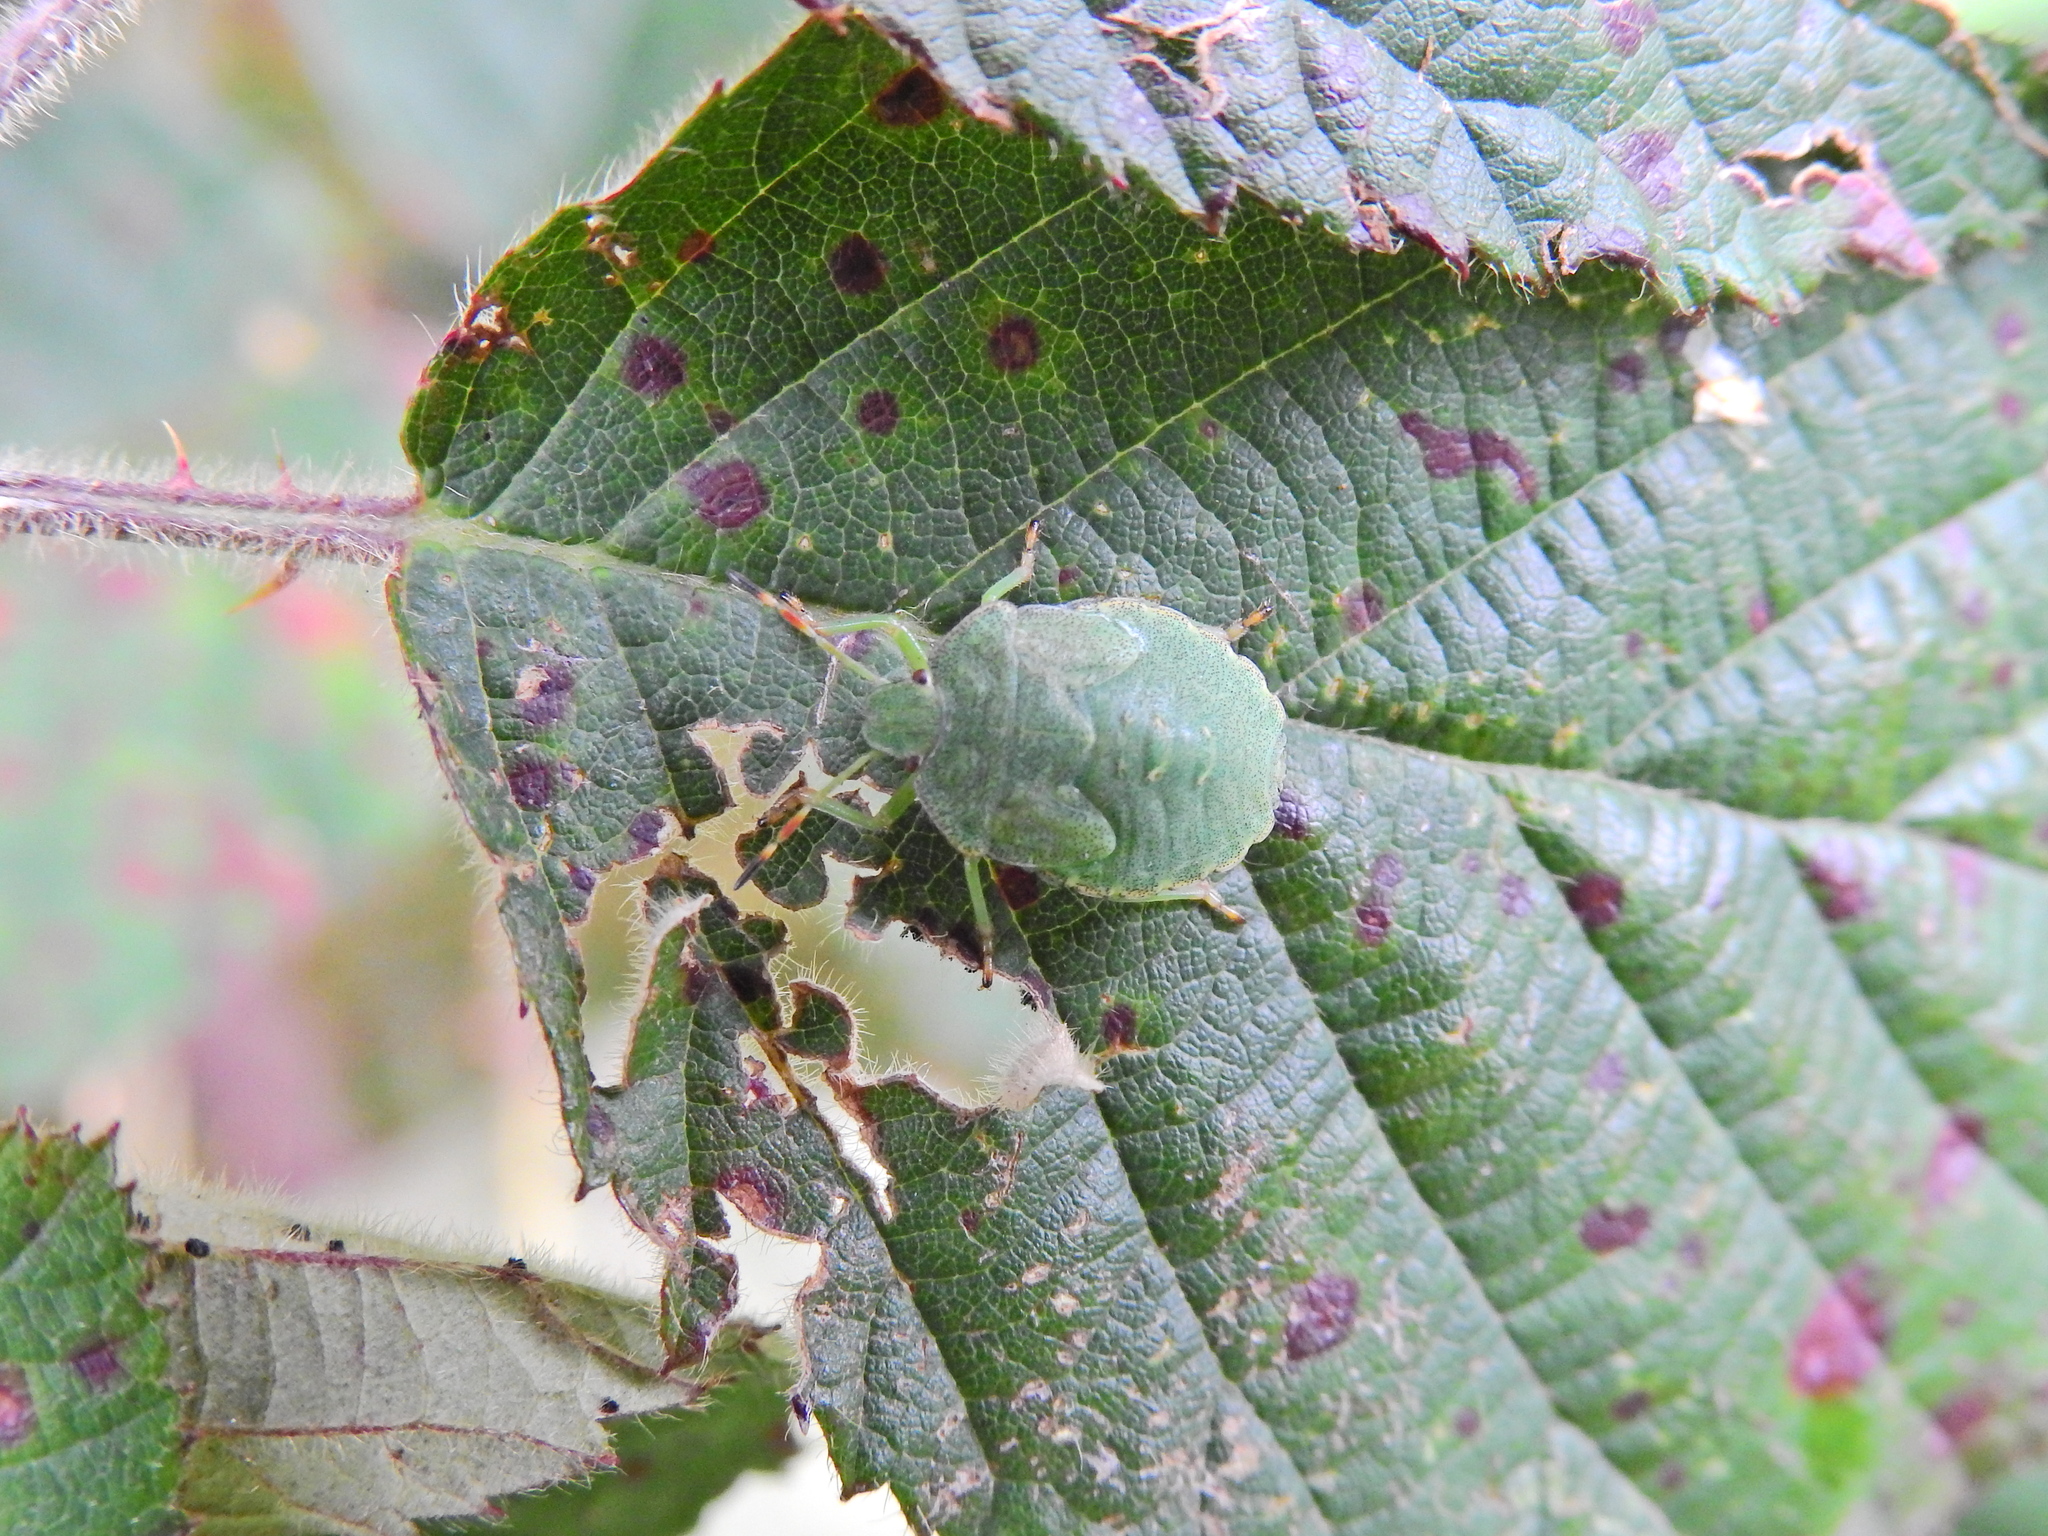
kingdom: Animalia
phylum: Arthropoda
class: Insecta
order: Hemiptera
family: Pentatomidae
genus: Palomena
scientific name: Palomena prasina
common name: Green shieldbug
